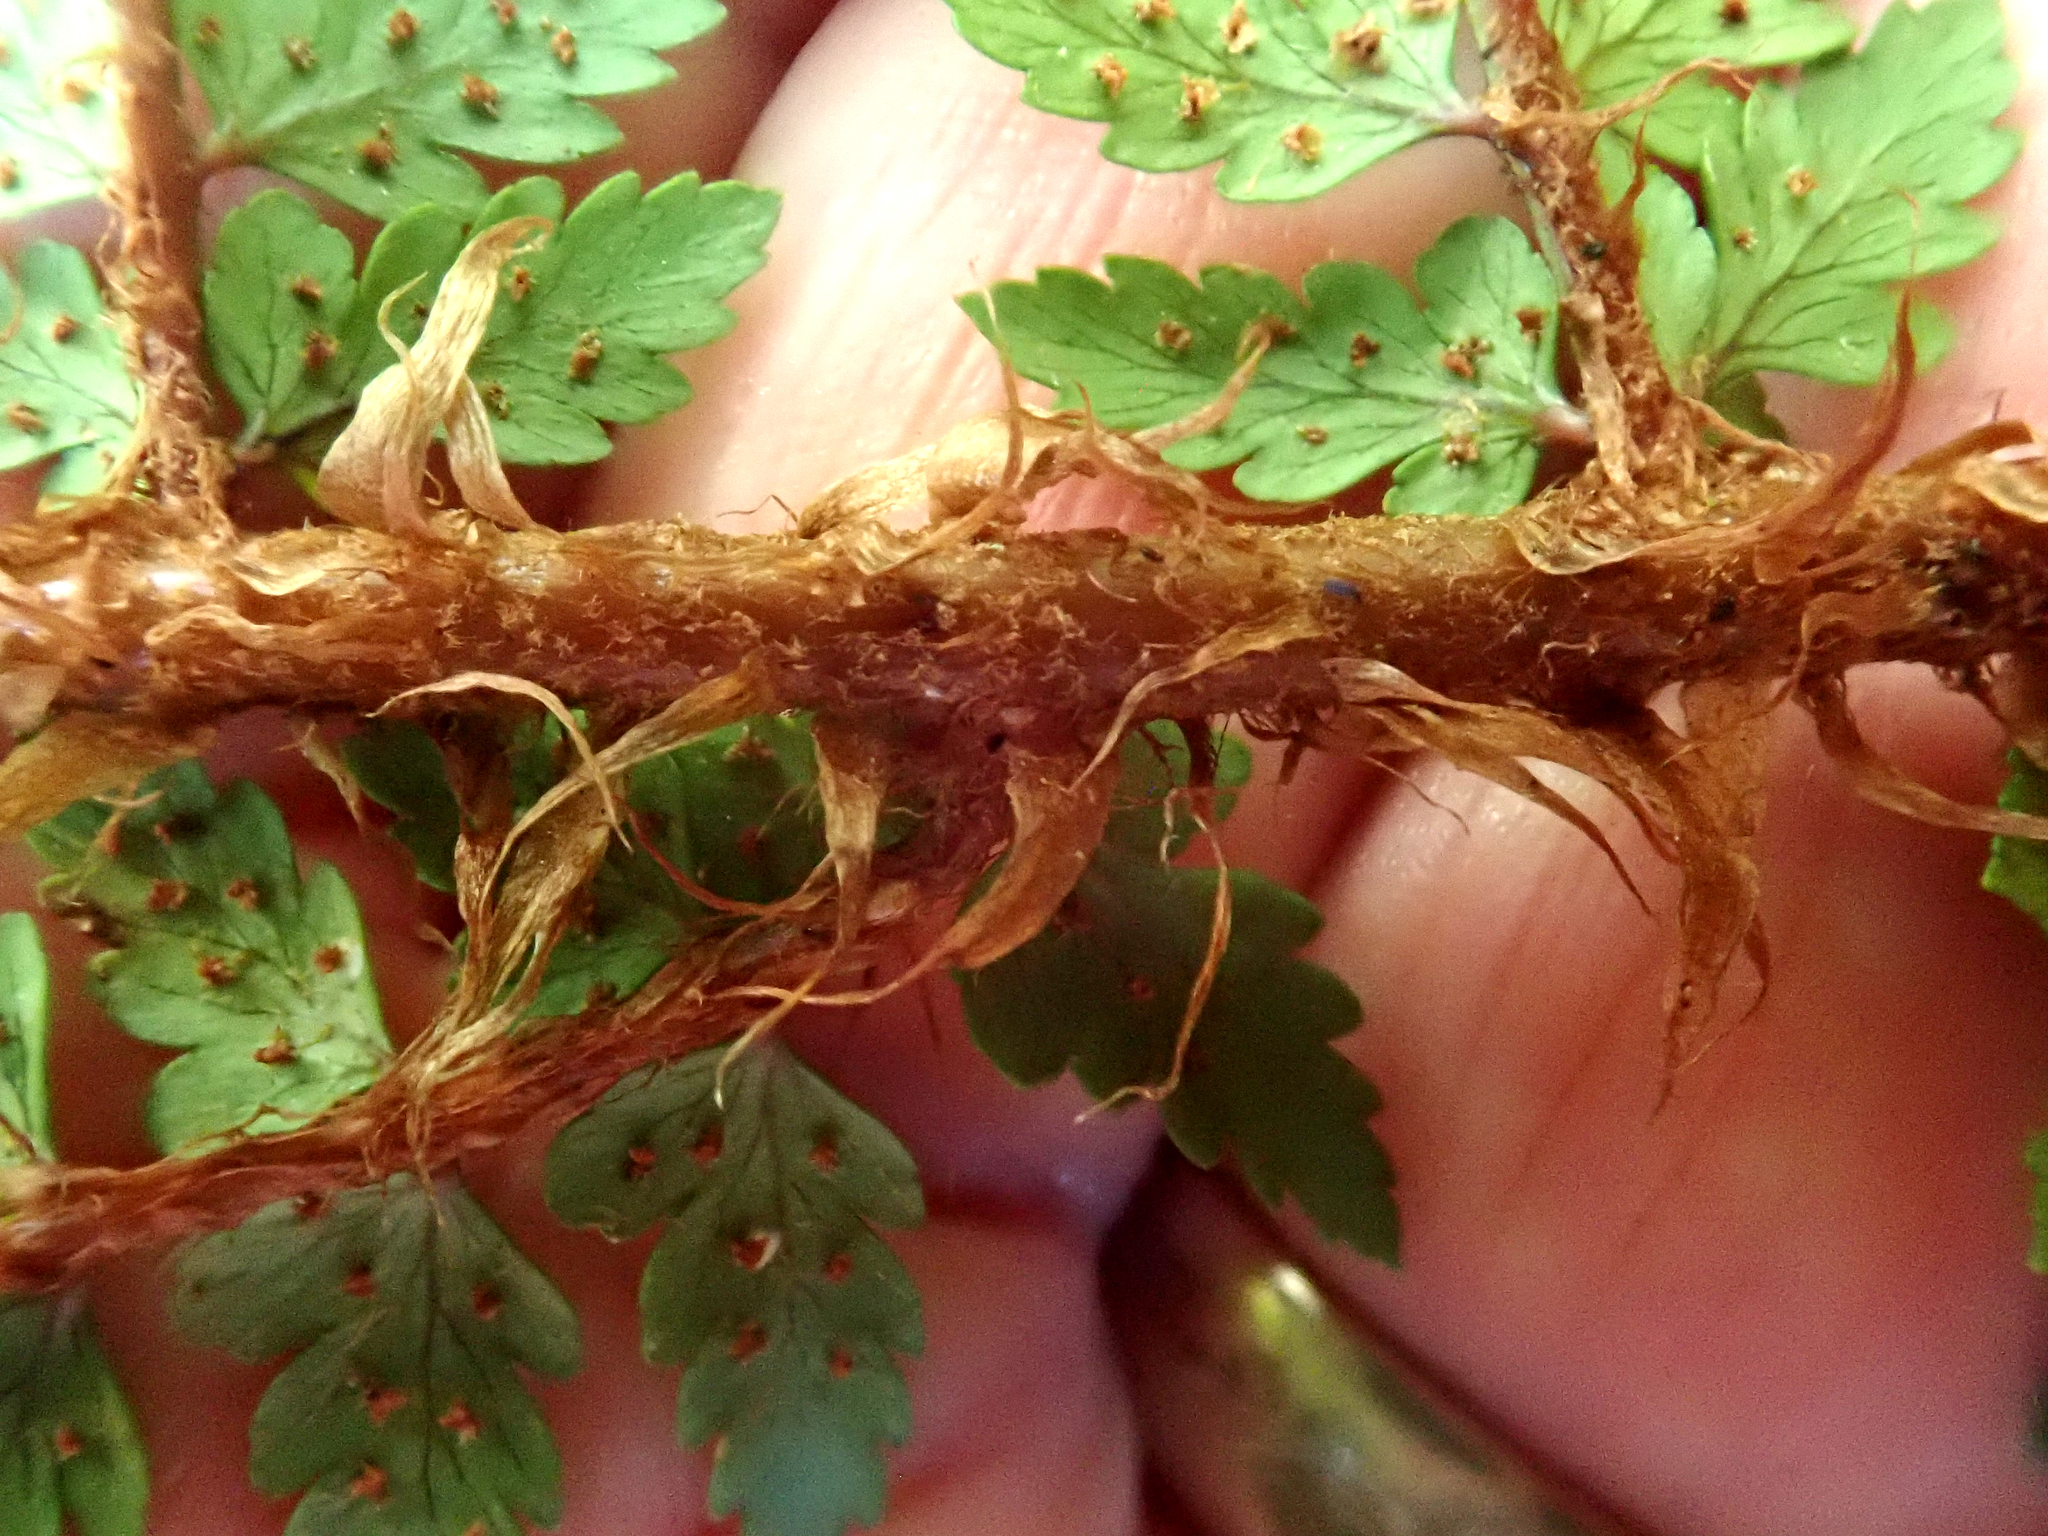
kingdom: Plantae
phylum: Tracheophyta
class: Polypodiopsida
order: Polypodiales
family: Dryopteridaceae
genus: Polystichum
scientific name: Polystichum vestitum
